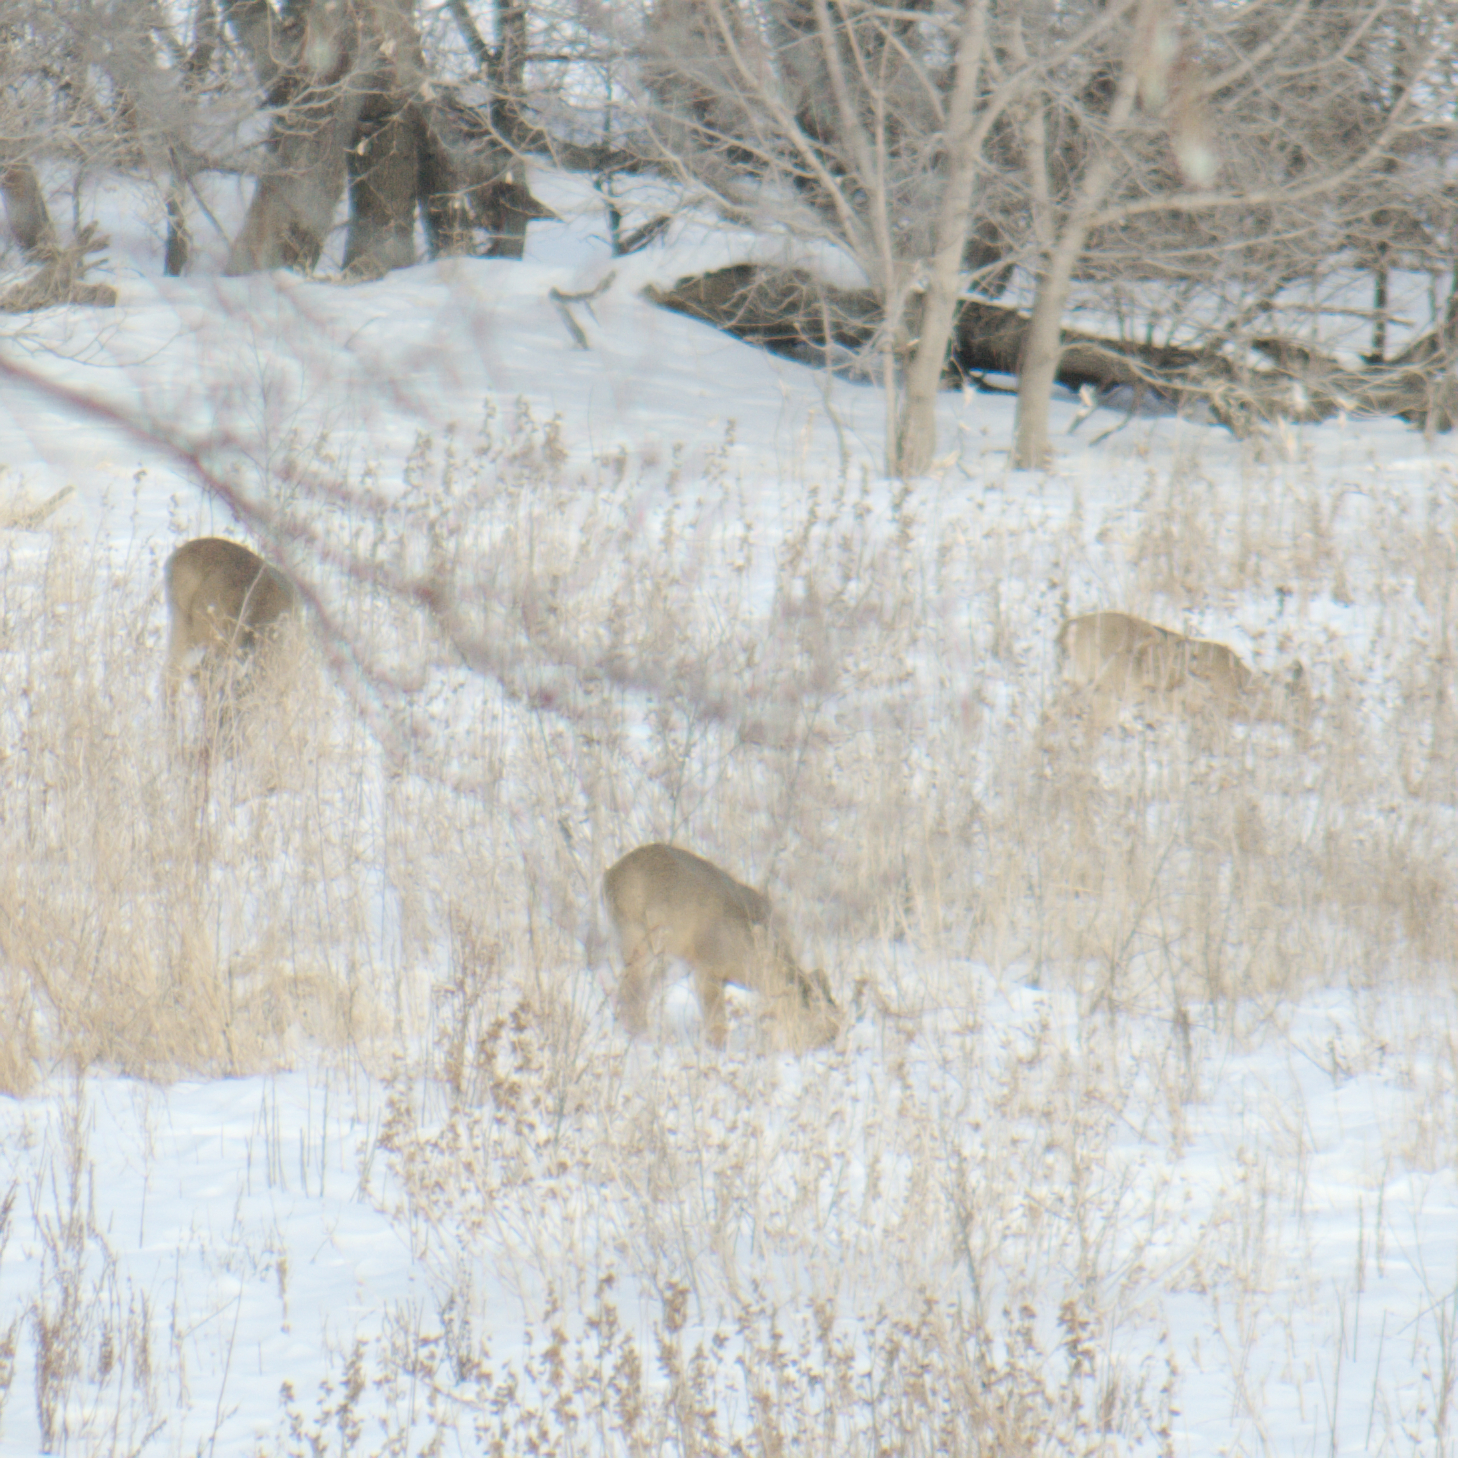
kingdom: Animalia
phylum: Chordata
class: Mammalia
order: Artiodactyla
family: Cervidae
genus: Odocoileus
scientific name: Odocoileus virginianus
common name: White-tailed deer
